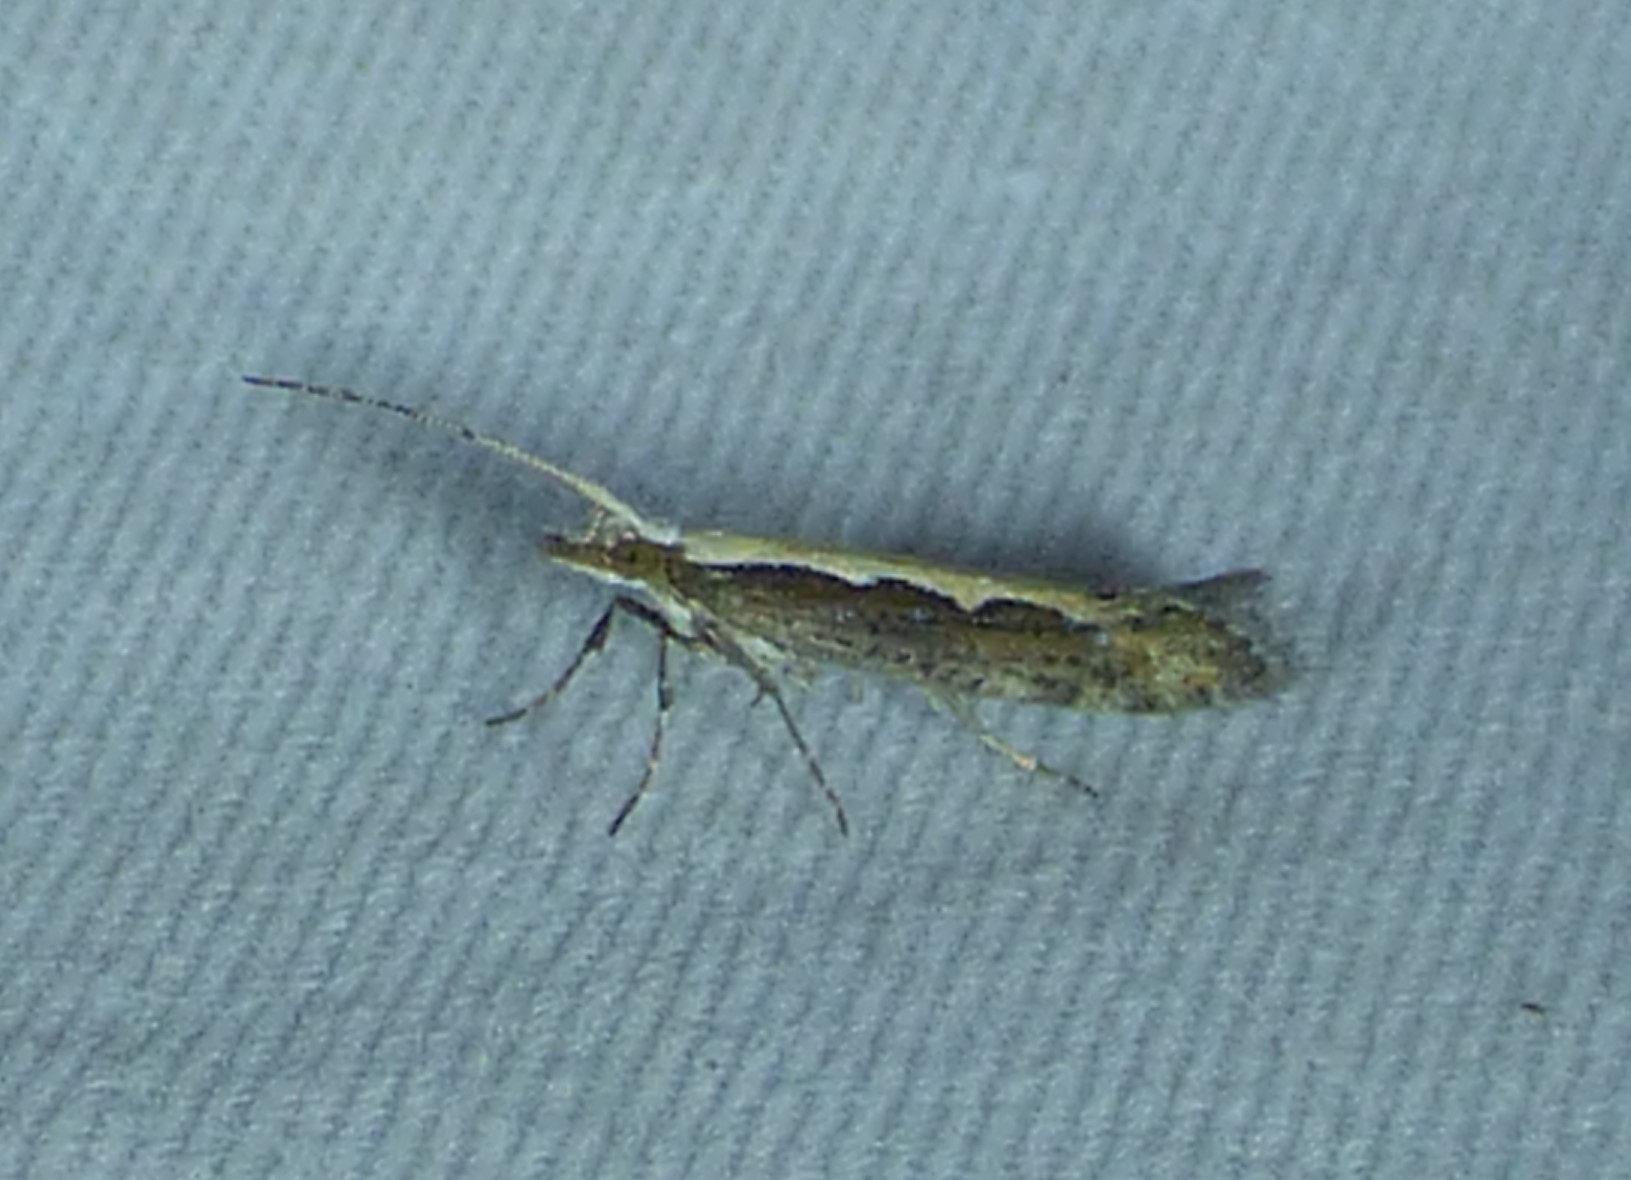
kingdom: Animalia
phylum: Arthropoda
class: Insecta
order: Lepidoptera
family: Plutellidae
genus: Plutella
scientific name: Plutella xylostella
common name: Diamond-back moth
